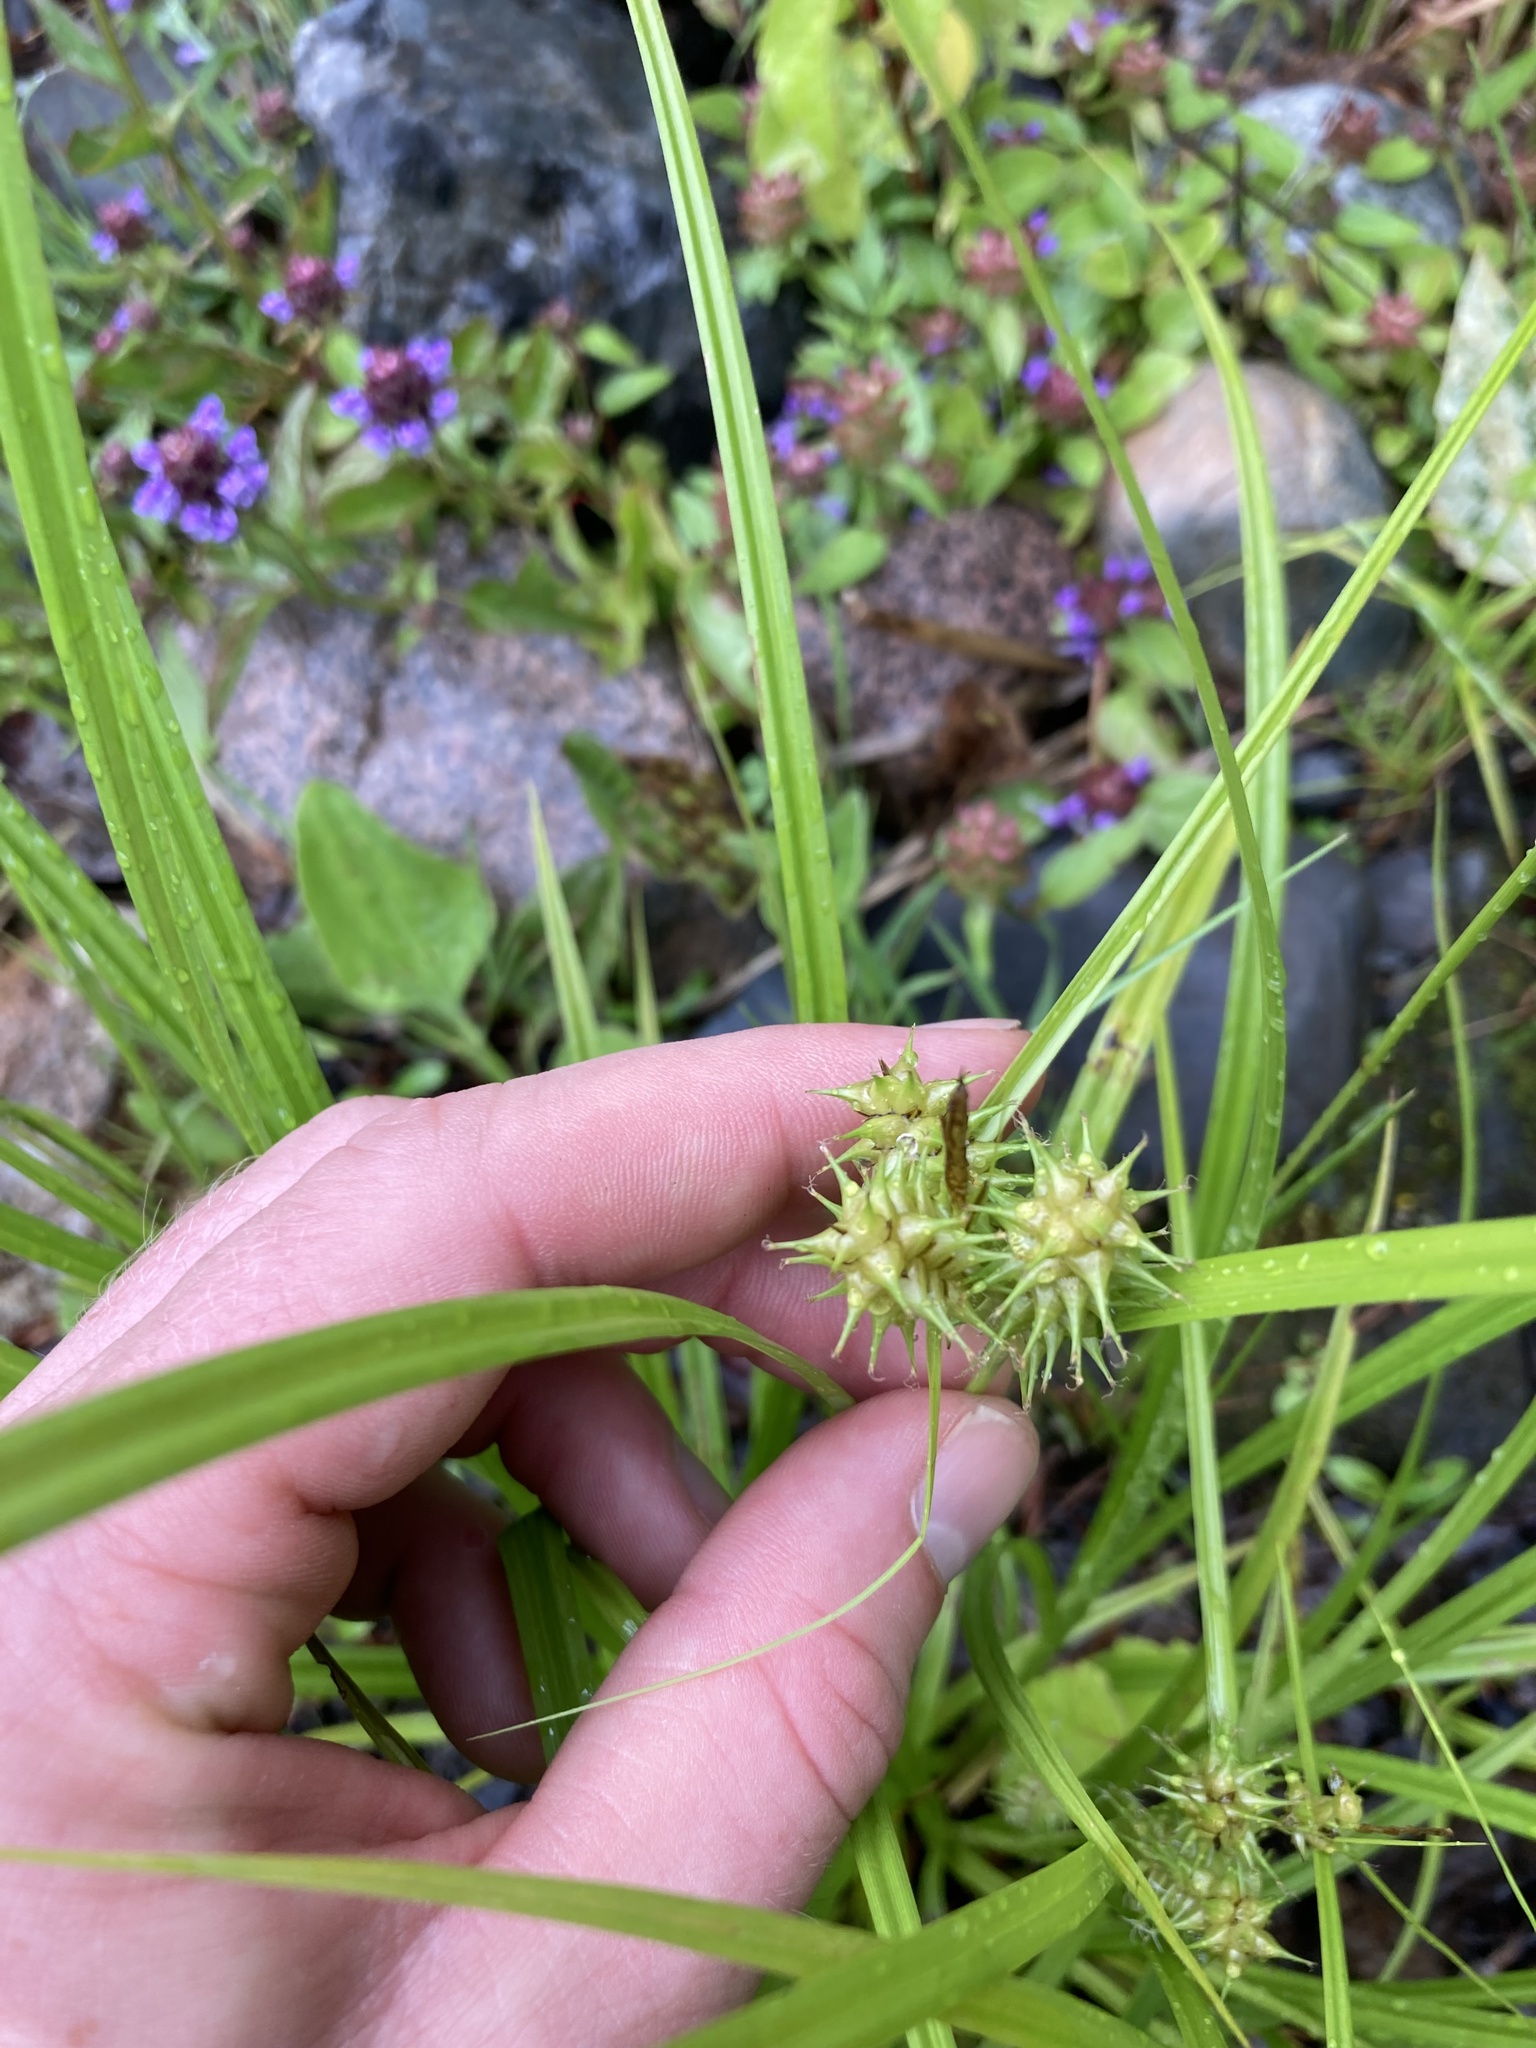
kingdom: Plantae
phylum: Tracheophyta
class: Liliopsida
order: Poales
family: Cyperaceae
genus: Carex
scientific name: Carex retrorsa
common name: Knot-sheath sedge
